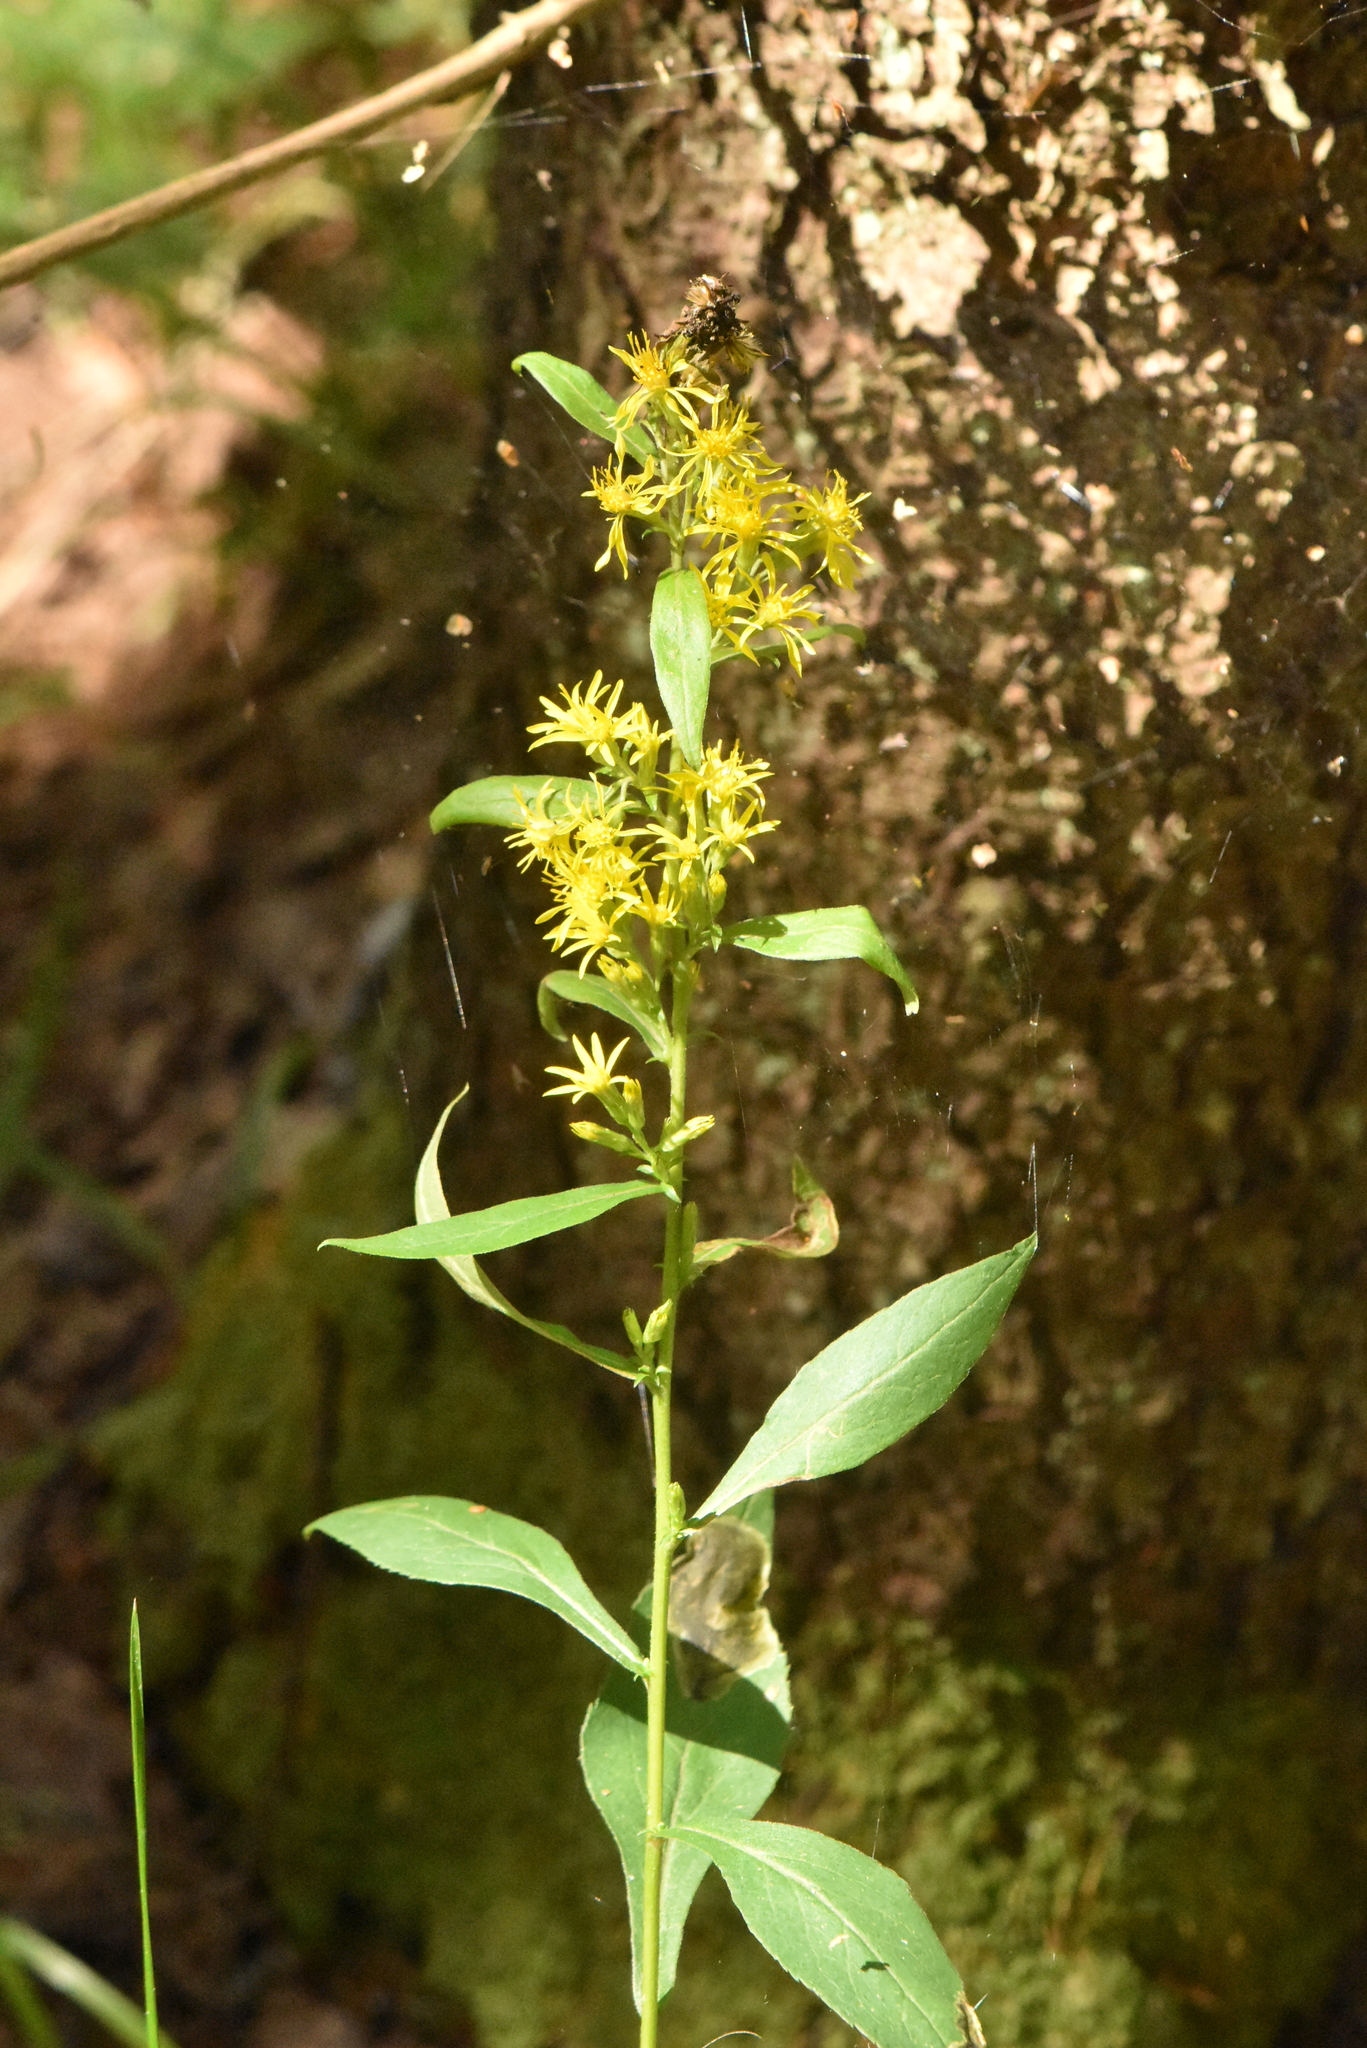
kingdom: Plantae
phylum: Tracheophyta
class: Magnoliopsida
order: Asterales
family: Asteraceae
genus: Solidago
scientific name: Solidago virgaurea
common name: Goldenrod
